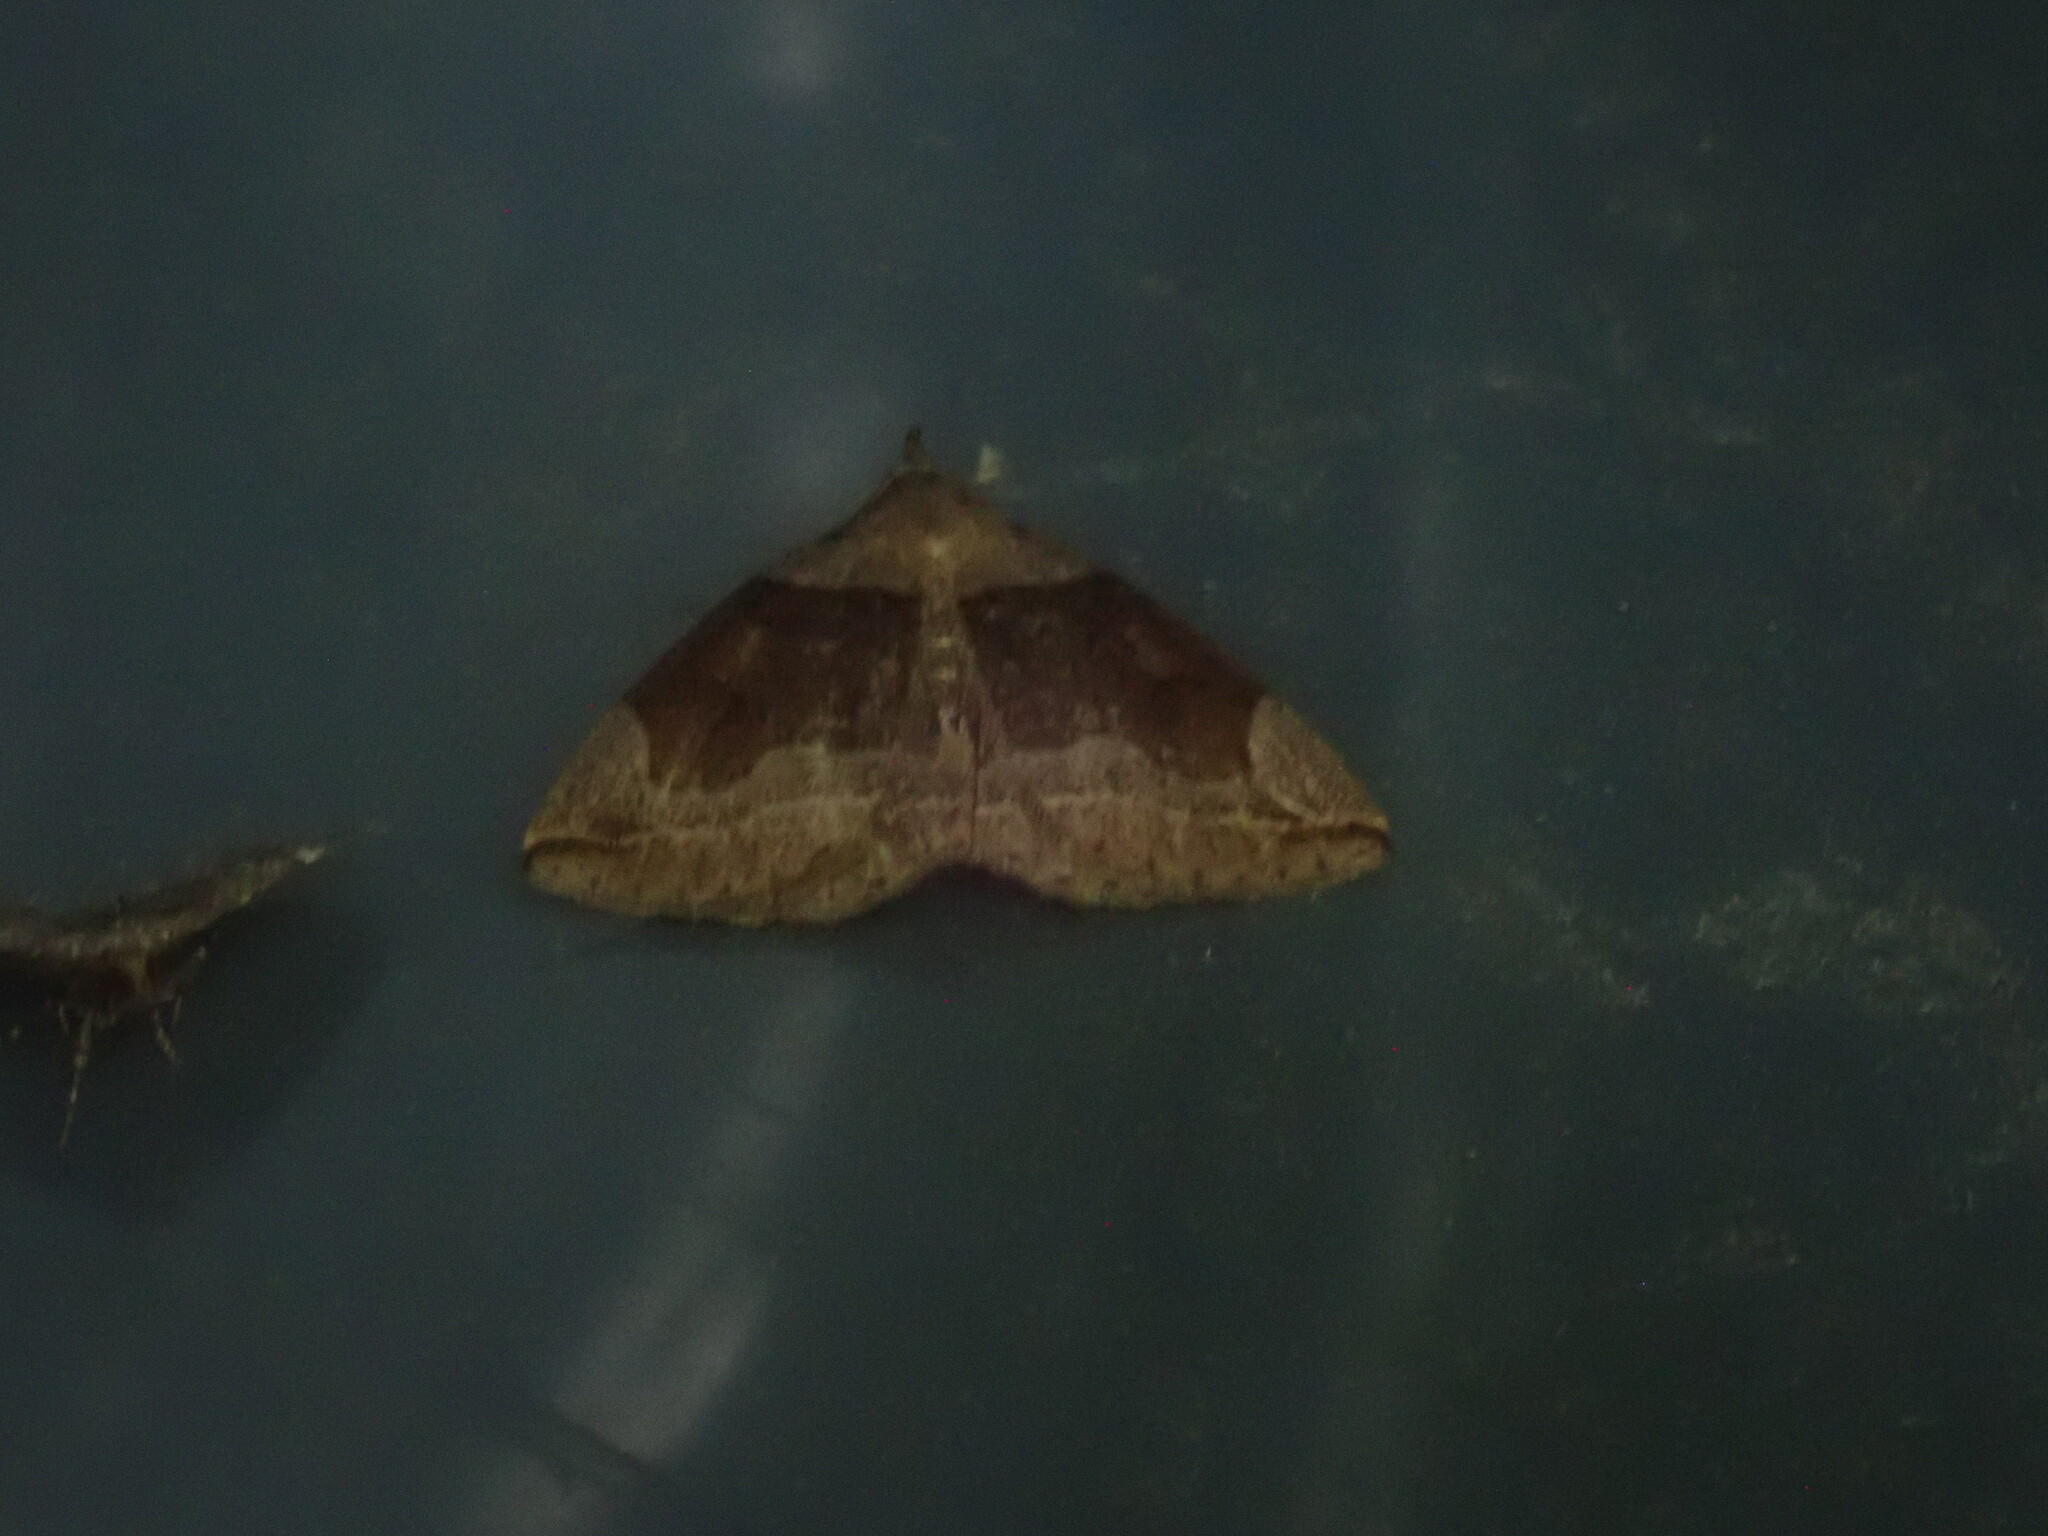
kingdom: Animalia
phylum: Arthropoda
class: Insecta
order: Lepidoptera
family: Erebidae
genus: Zanclognatha
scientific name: Zanclognatha laevigata
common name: Variable fan-foot
